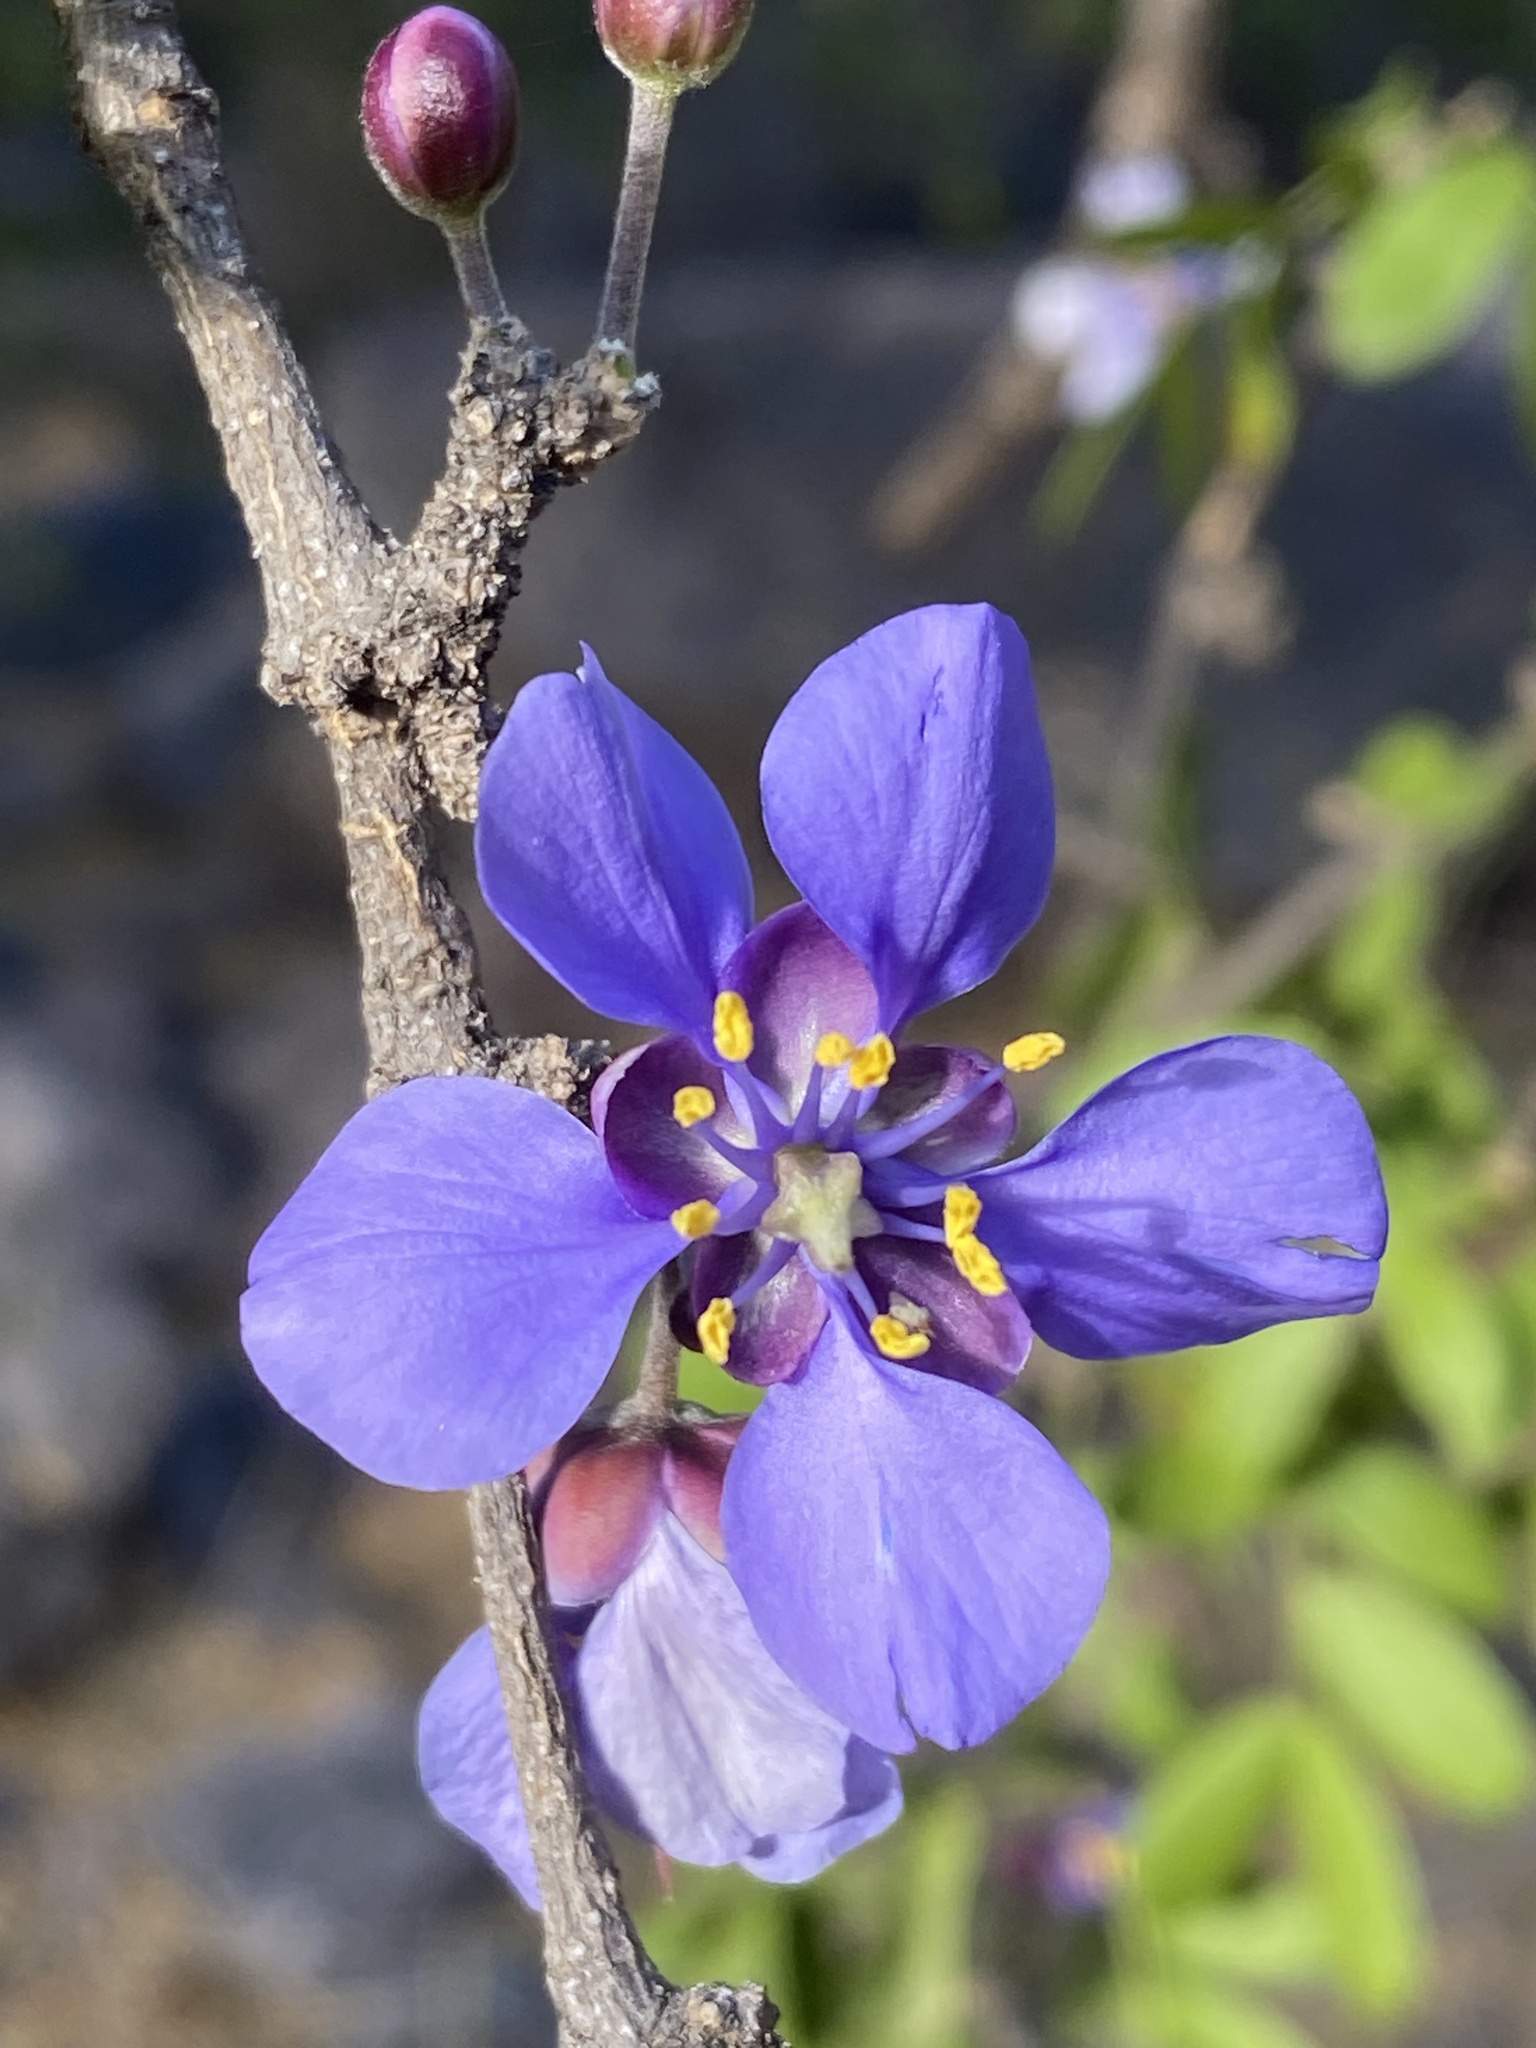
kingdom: Plantae
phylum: Tracheophyta
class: Magnoliopsida
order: Zygophyllales
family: Zygophyllaceae
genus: Guaiacum
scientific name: Guaiacum coulteri
